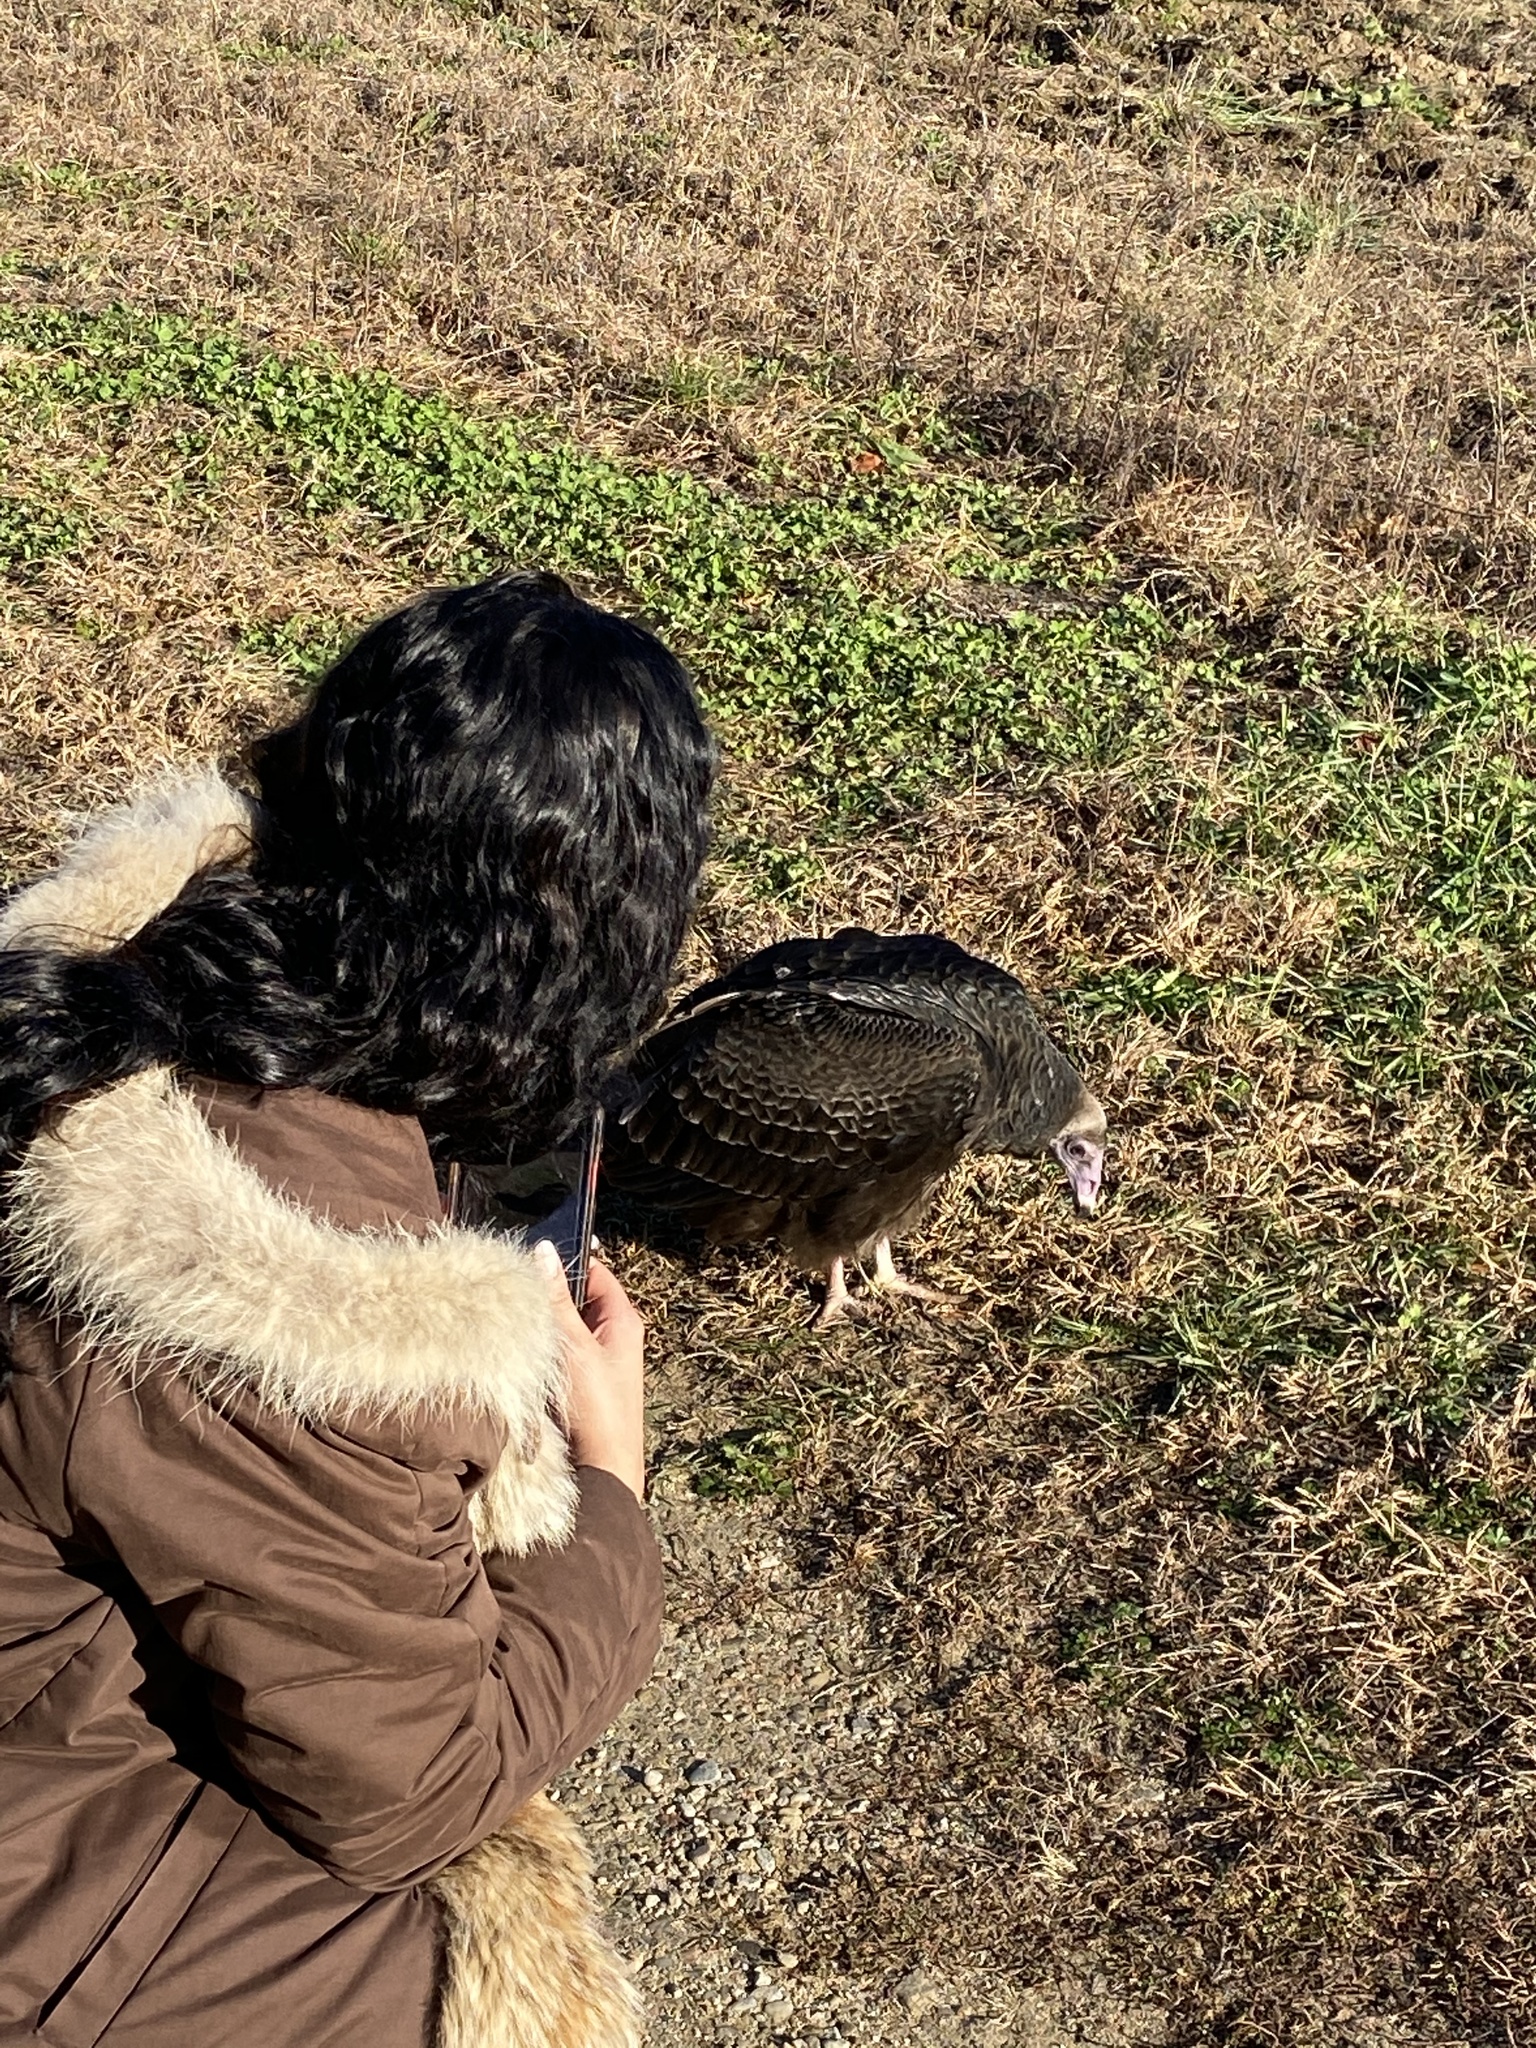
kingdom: Animalia
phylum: Chordata
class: Aves
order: Accipitriformes
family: Cathartidae
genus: Cathartes
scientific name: Cathartes aura
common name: Turkey vulture
